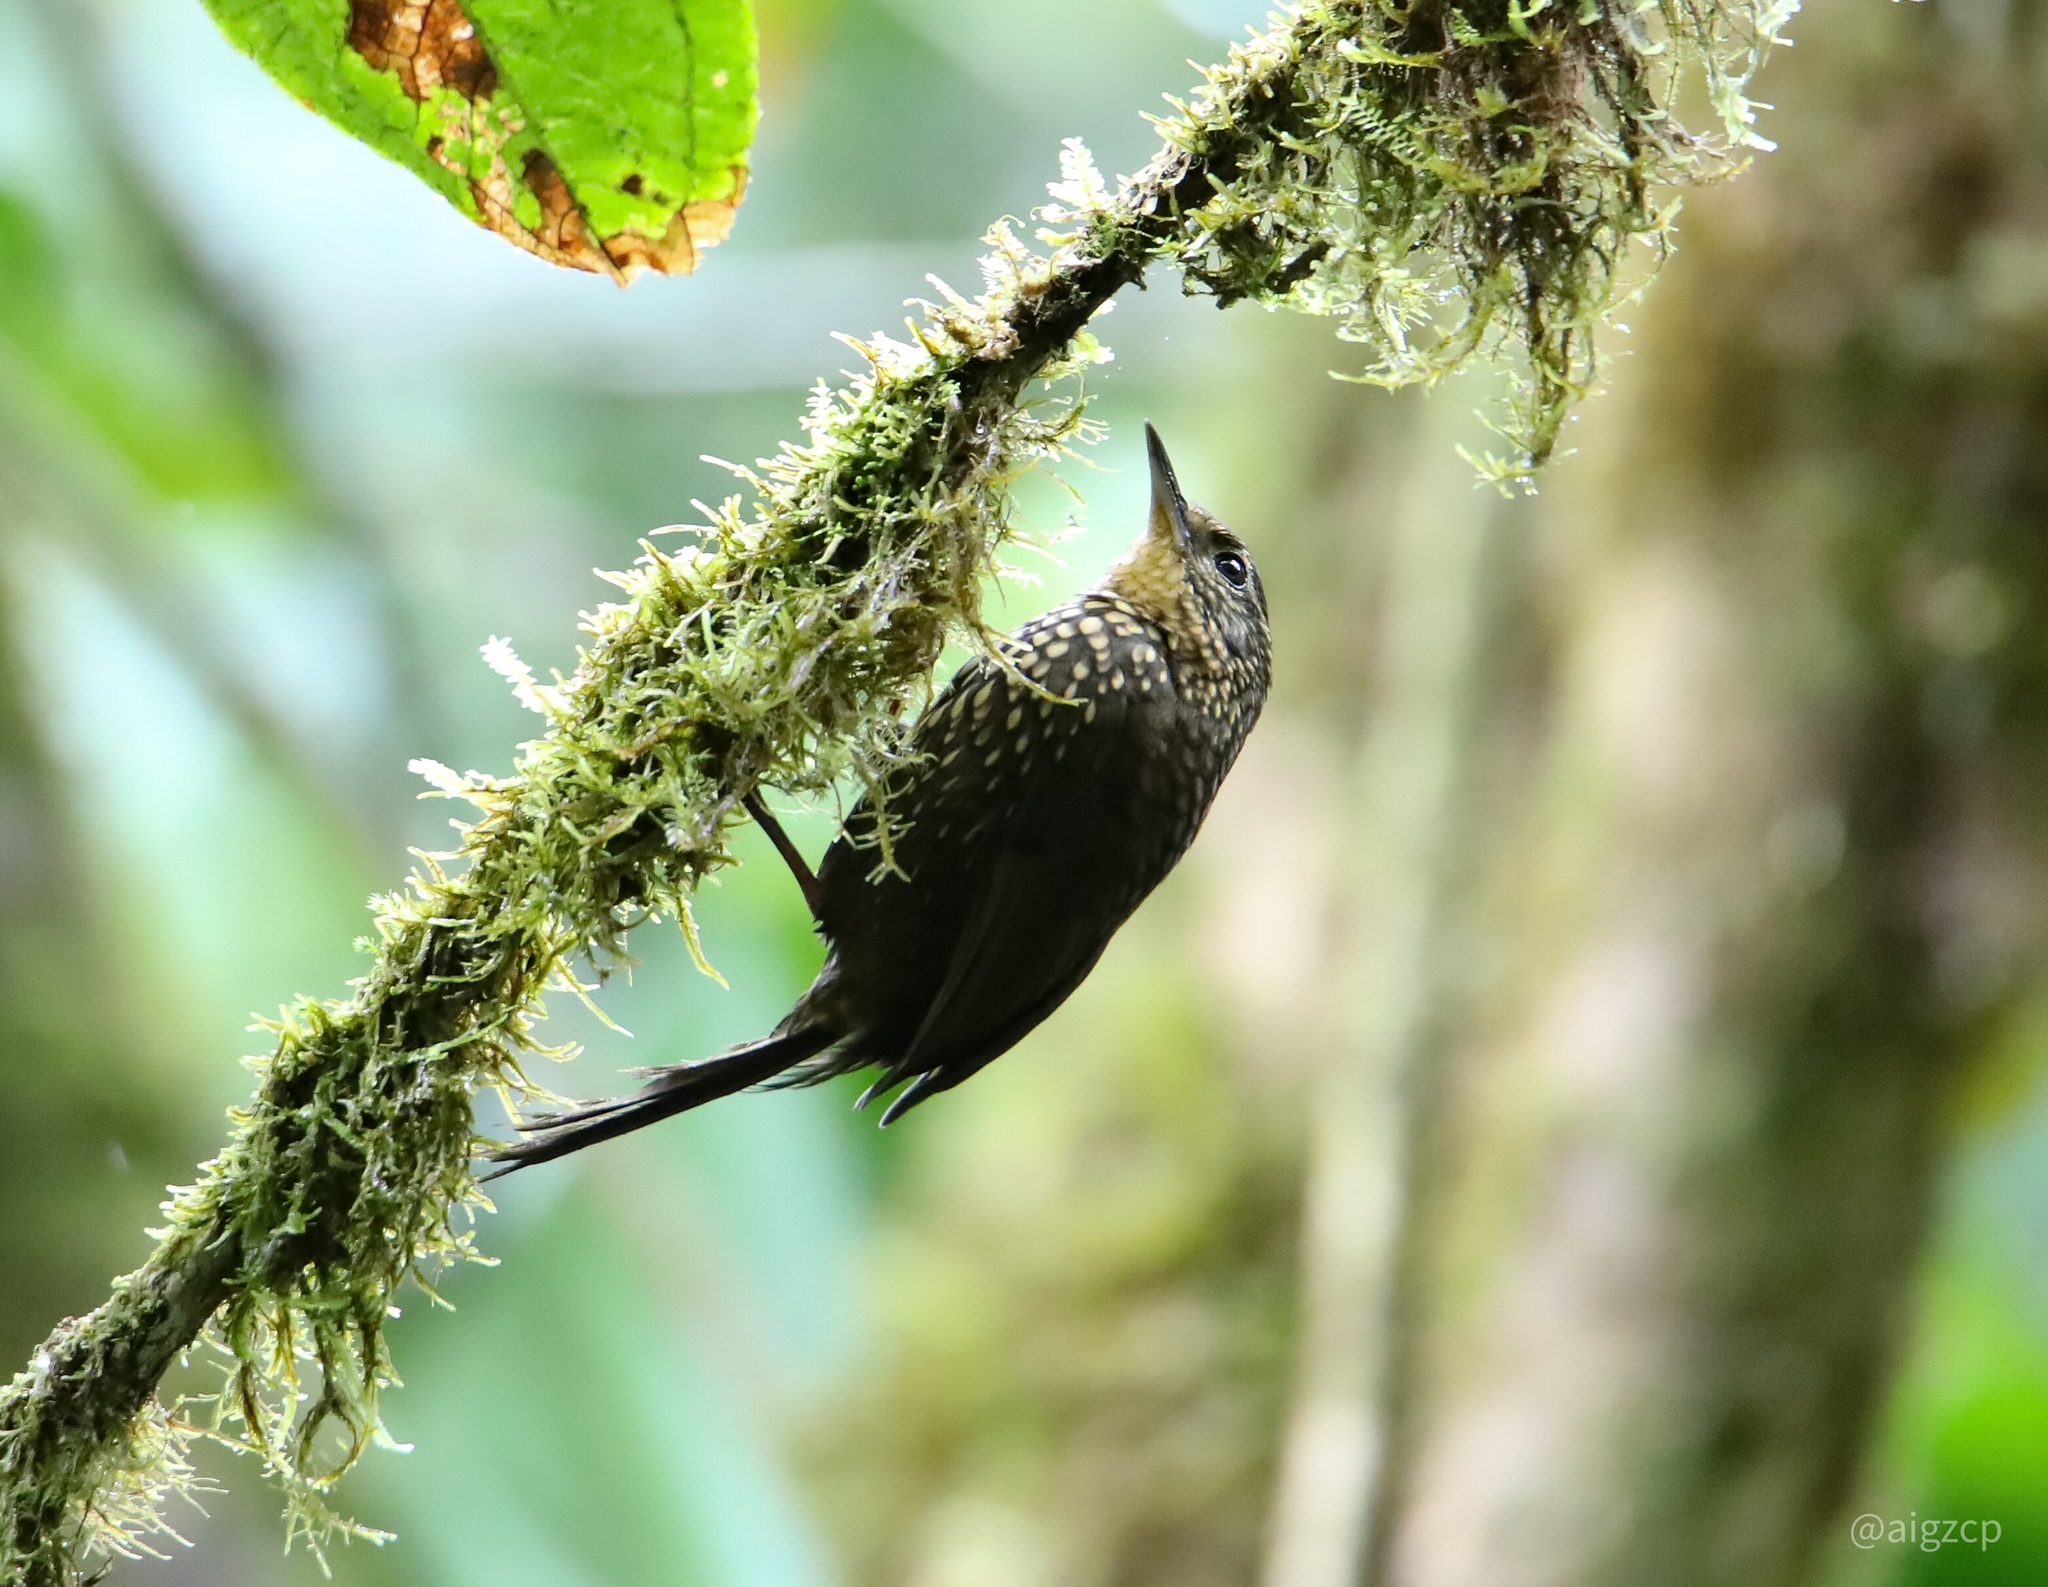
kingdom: Animalia
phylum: Chordata
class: Aves
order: Passeriformes
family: Furnariidae
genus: Premnoplex
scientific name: Premnoplex brunnescens
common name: Spotted barbtail
